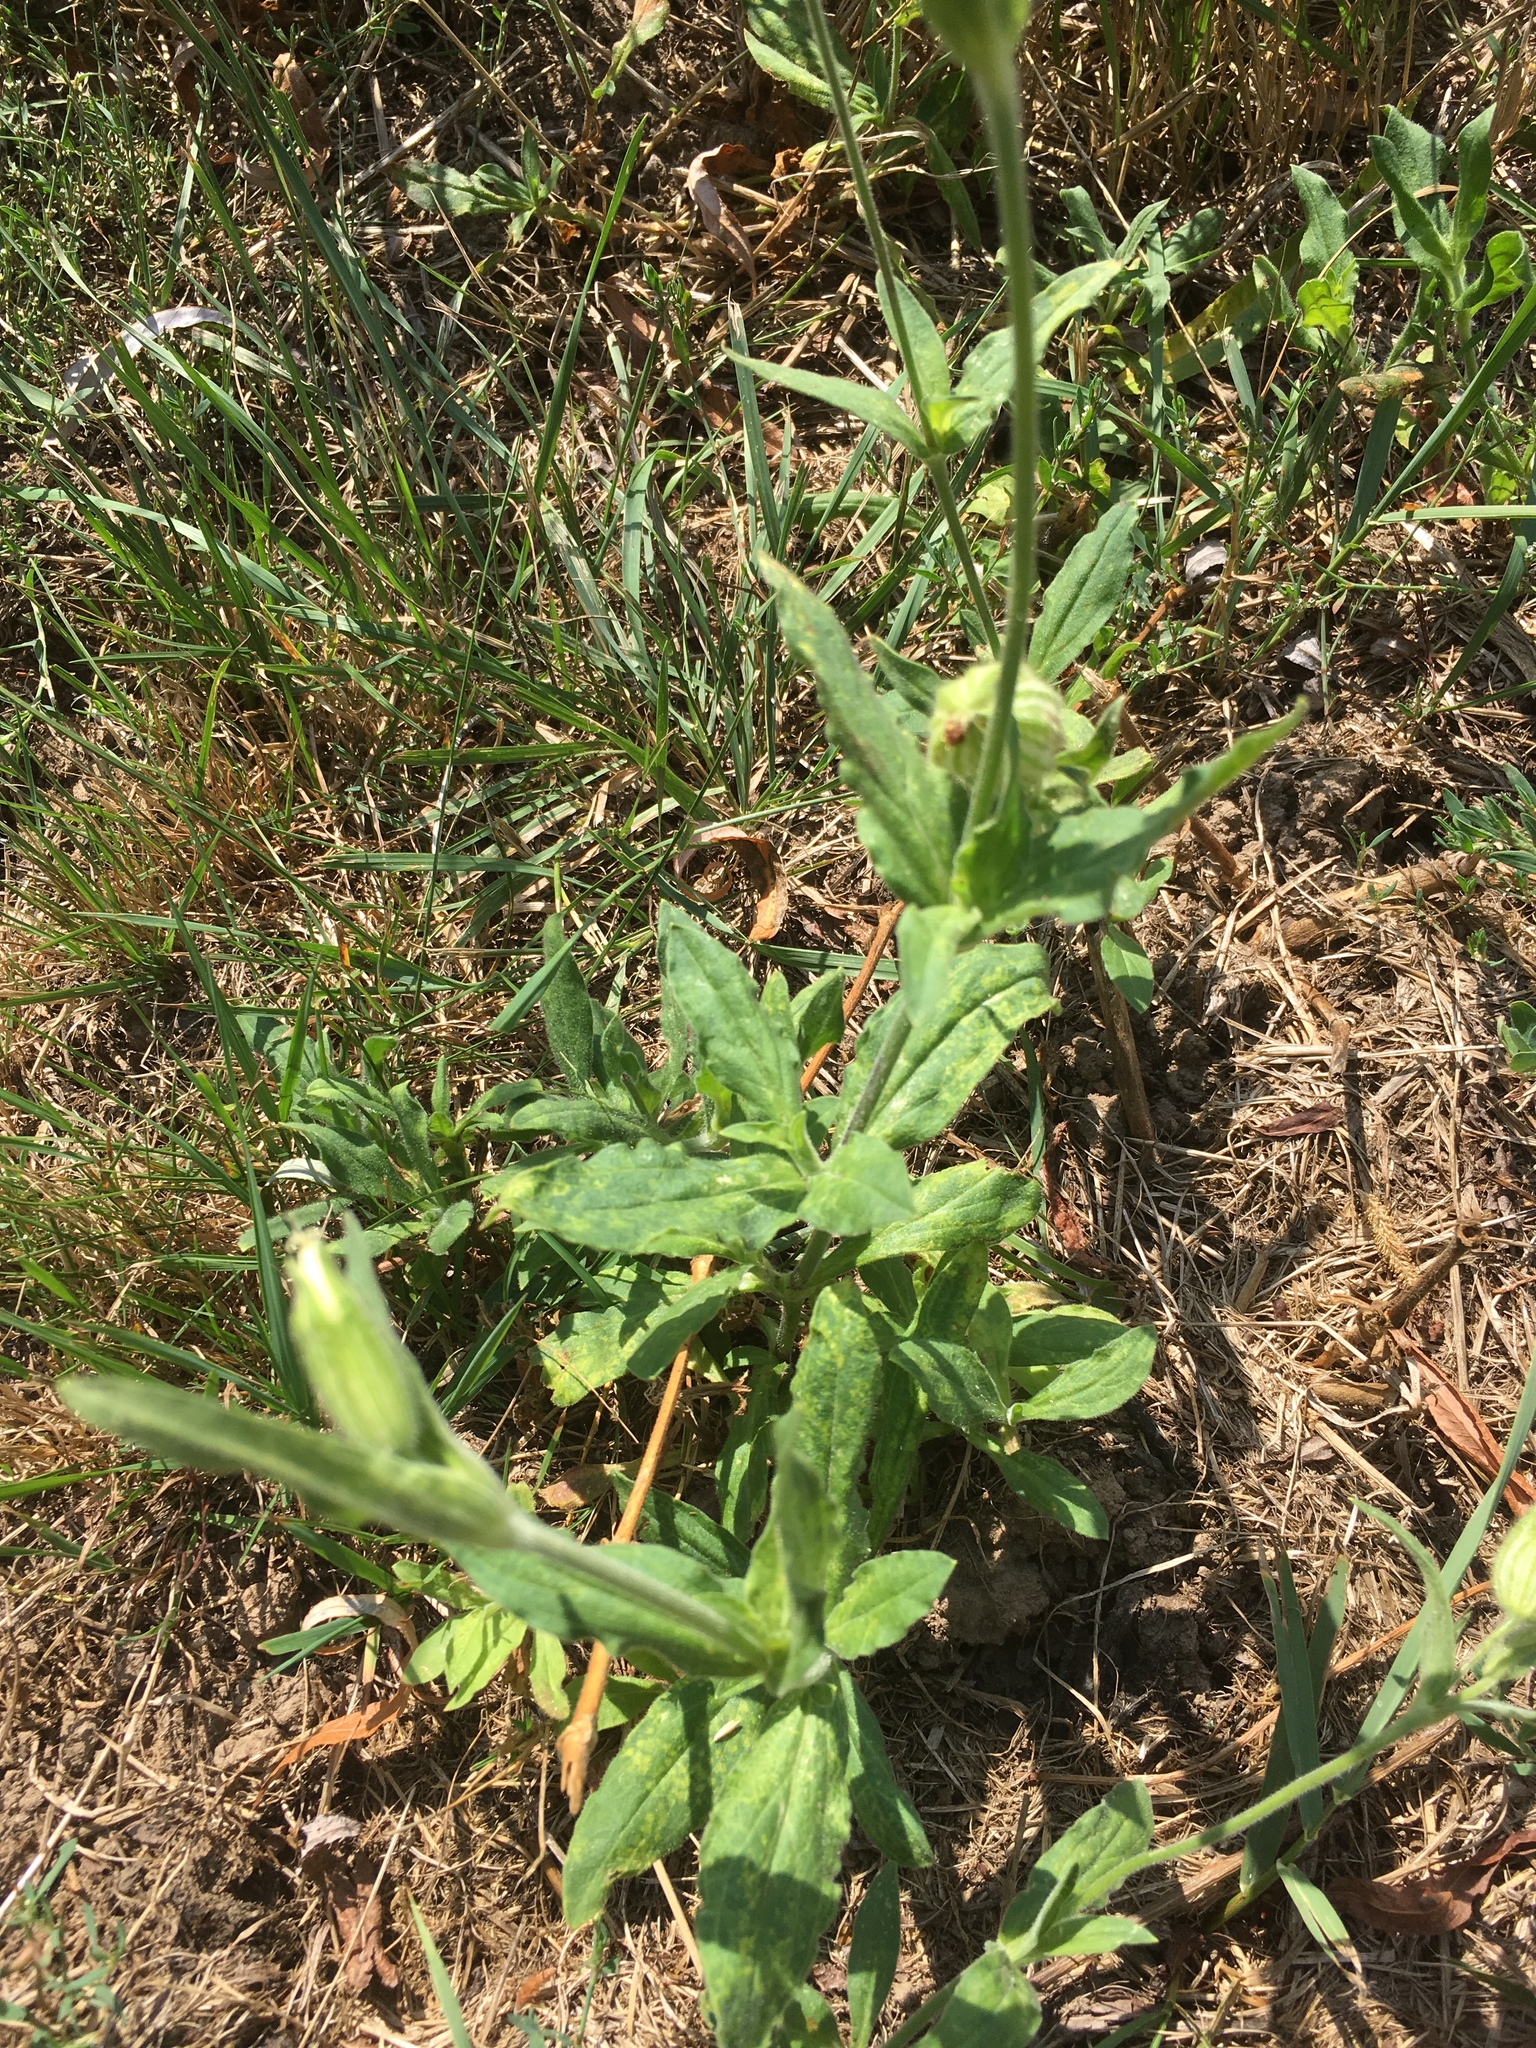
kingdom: Plantae
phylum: Tracheophyta
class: Magnoliopsida
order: Caryophyllales
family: Caryophyllaceae
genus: Silene
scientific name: Silene latifolia
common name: White campion
